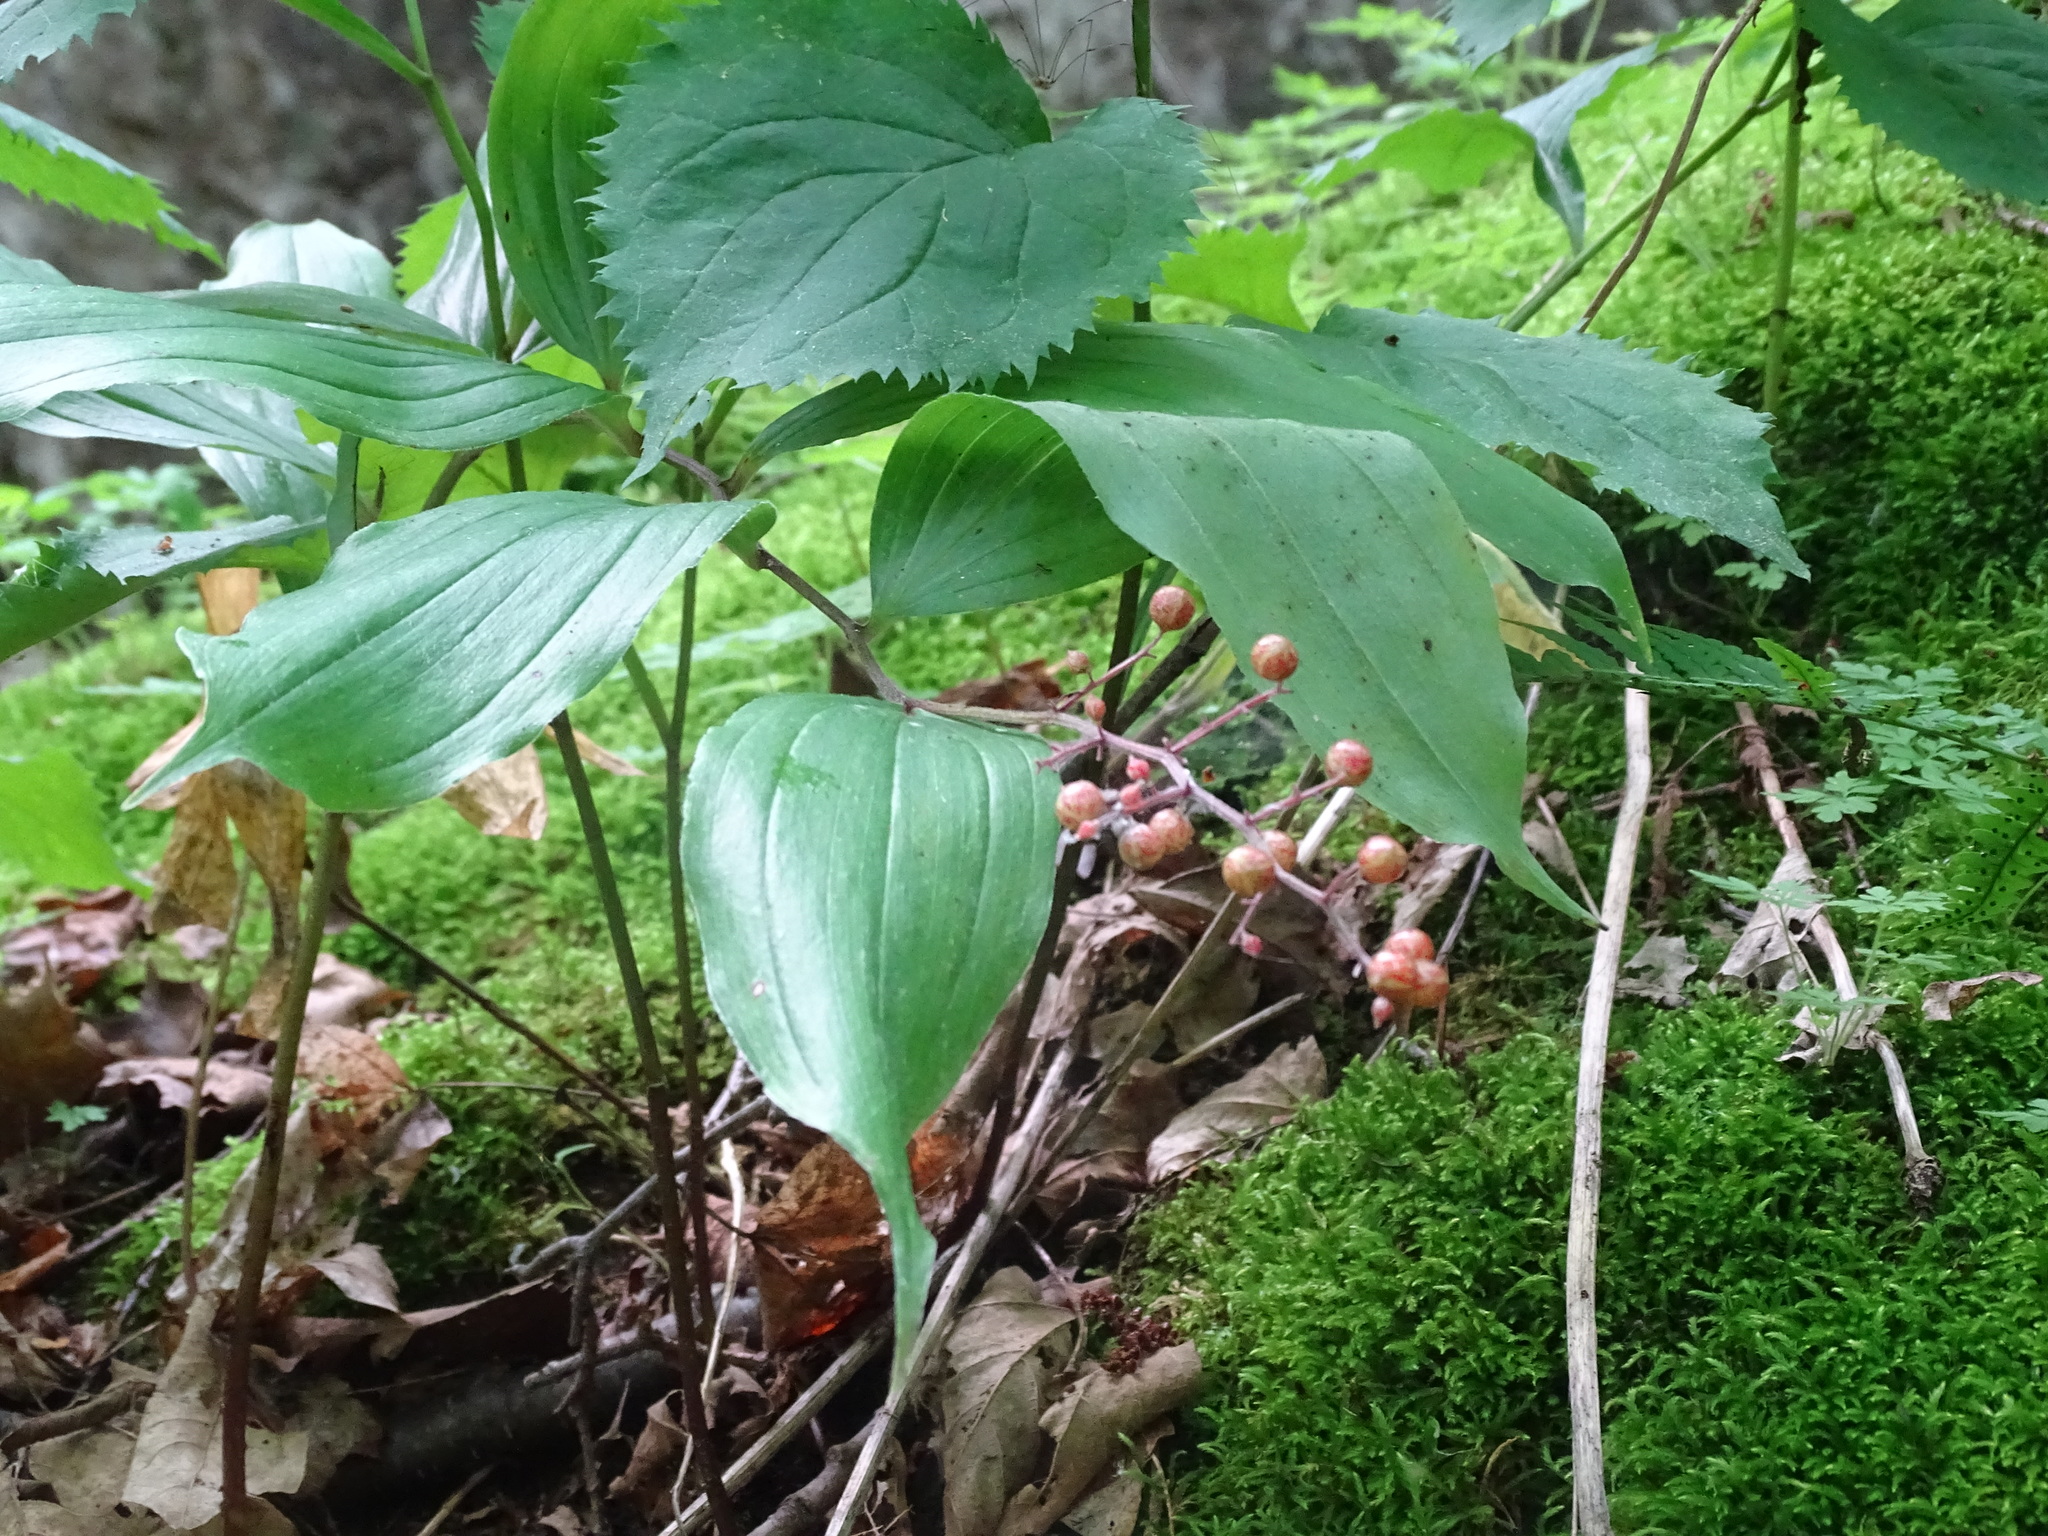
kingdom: Plantae
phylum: Tracheophyta
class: Liliopsida
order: Asparagales
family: Asparagaceae
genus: Maianthemum
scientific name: Maianthemum racemosum
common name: False spikenard
